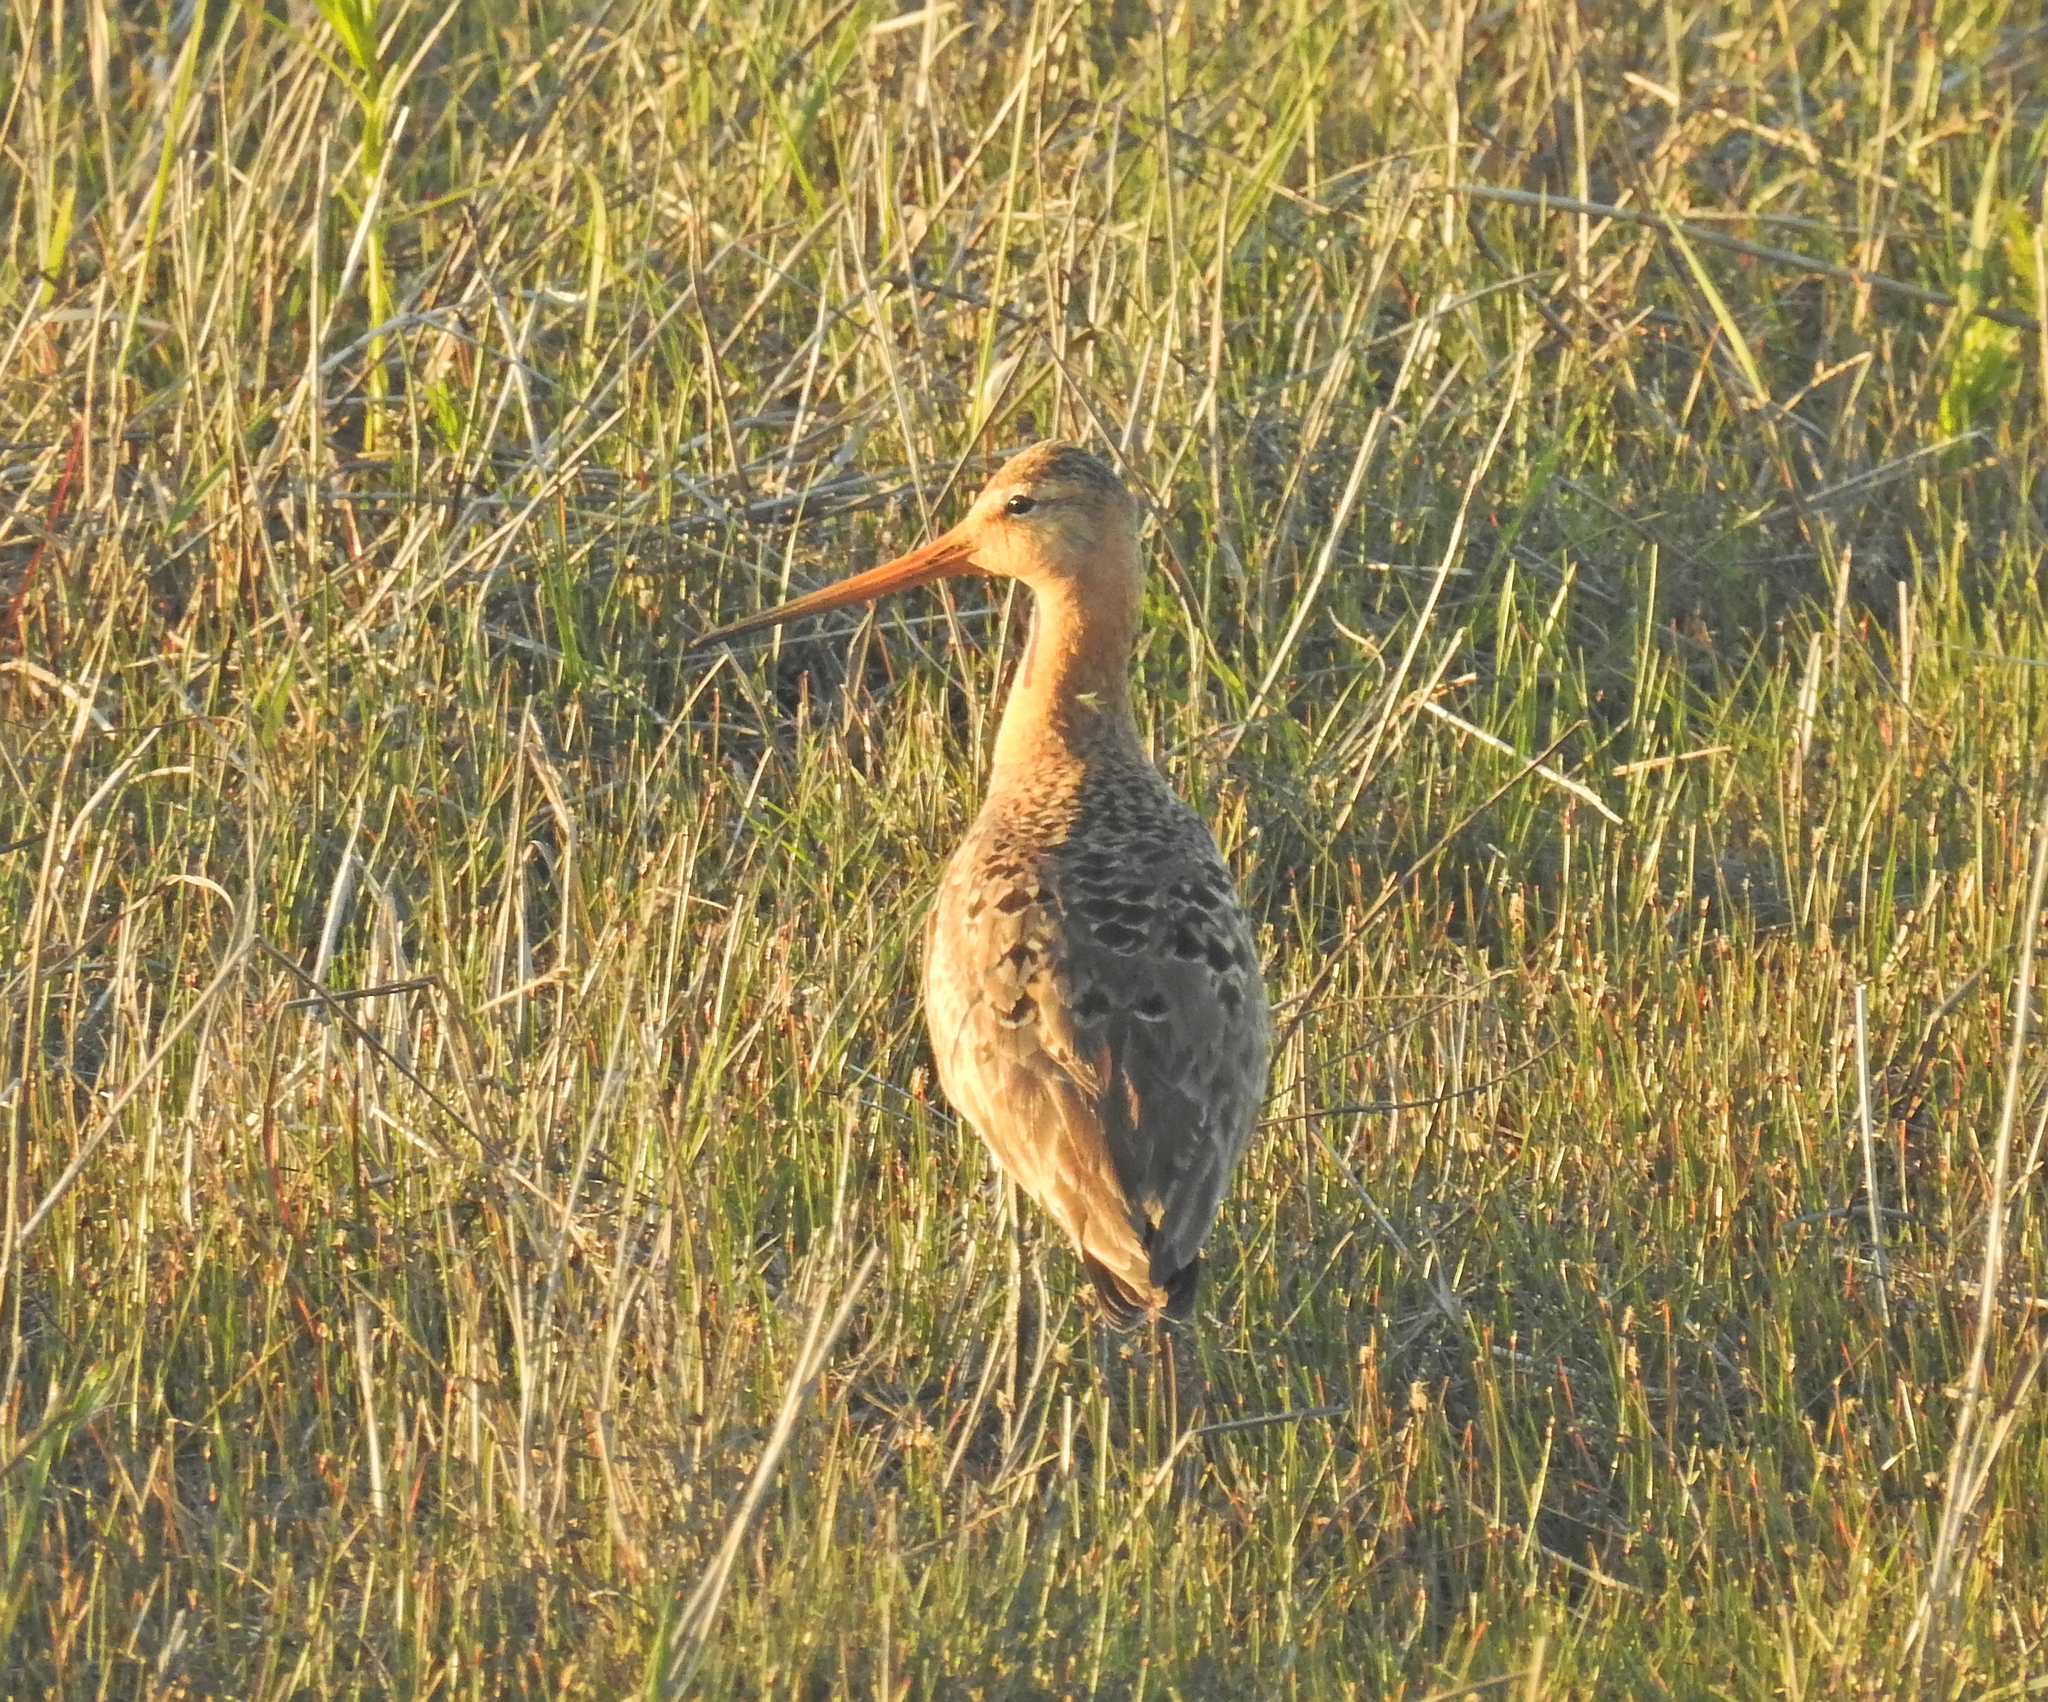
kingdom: Animalia
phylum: Chordata
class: Aves
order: Charadriiformes
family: Scolopacidae
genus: Limosa
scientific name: Limosa limosa
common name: Black-tailed godwit
